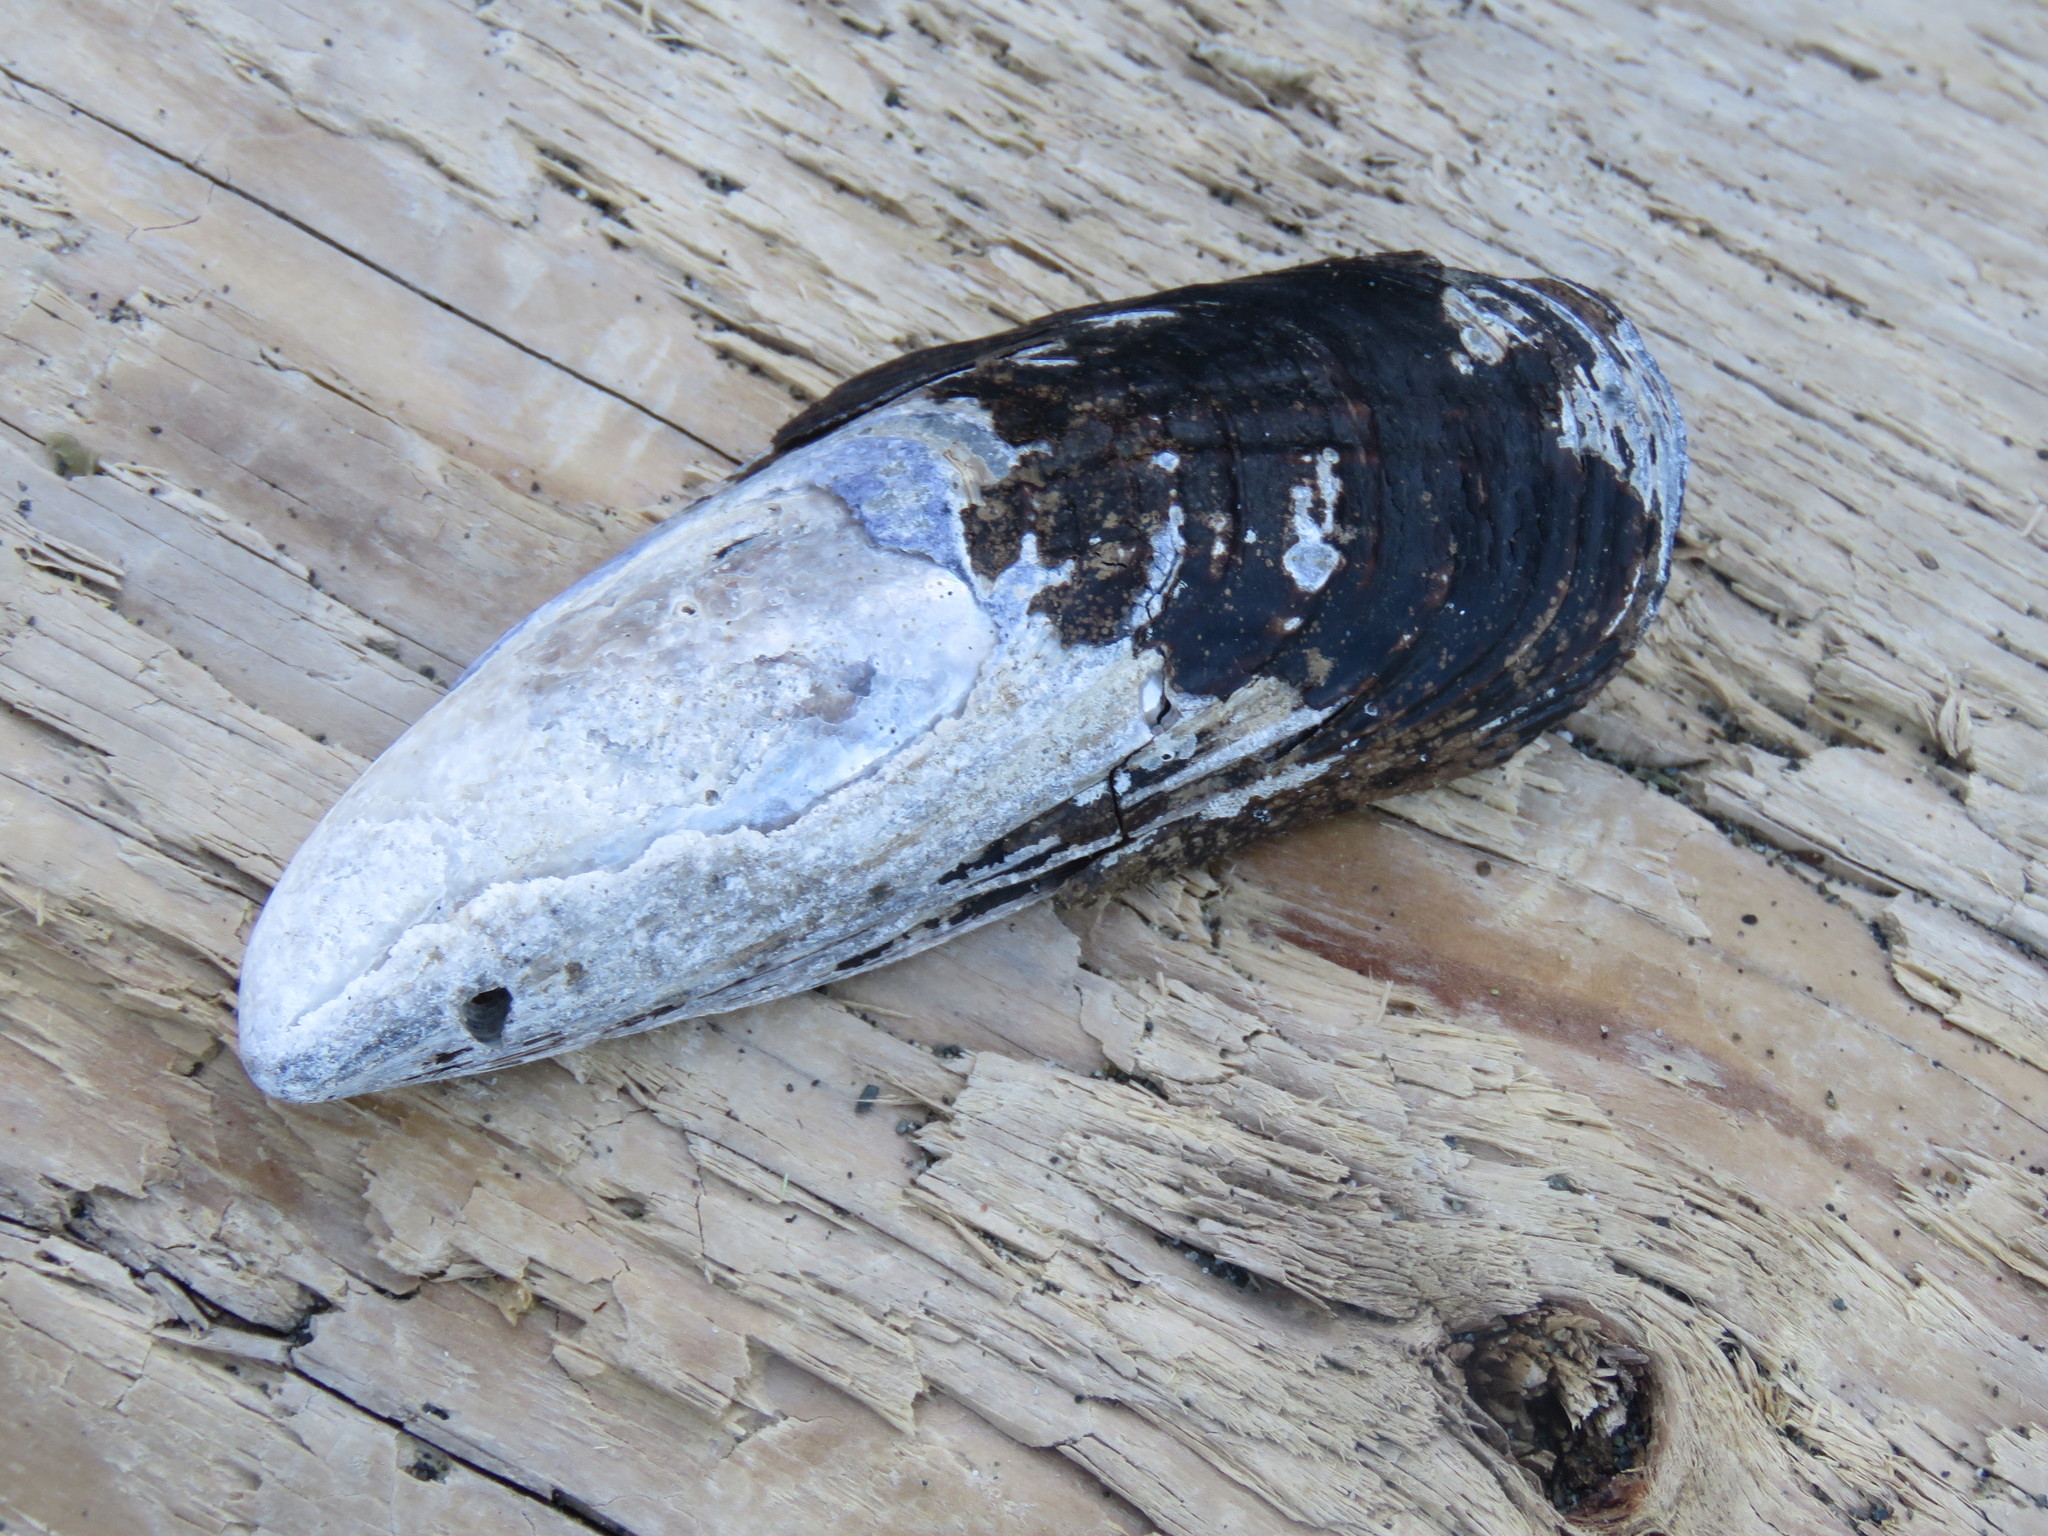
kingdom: Animalia
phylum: Mollusca
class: Bivalvia
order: Mytilida
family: Mytilidae
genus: Mytilus
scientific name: Mytilus californianus
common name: California mussel
